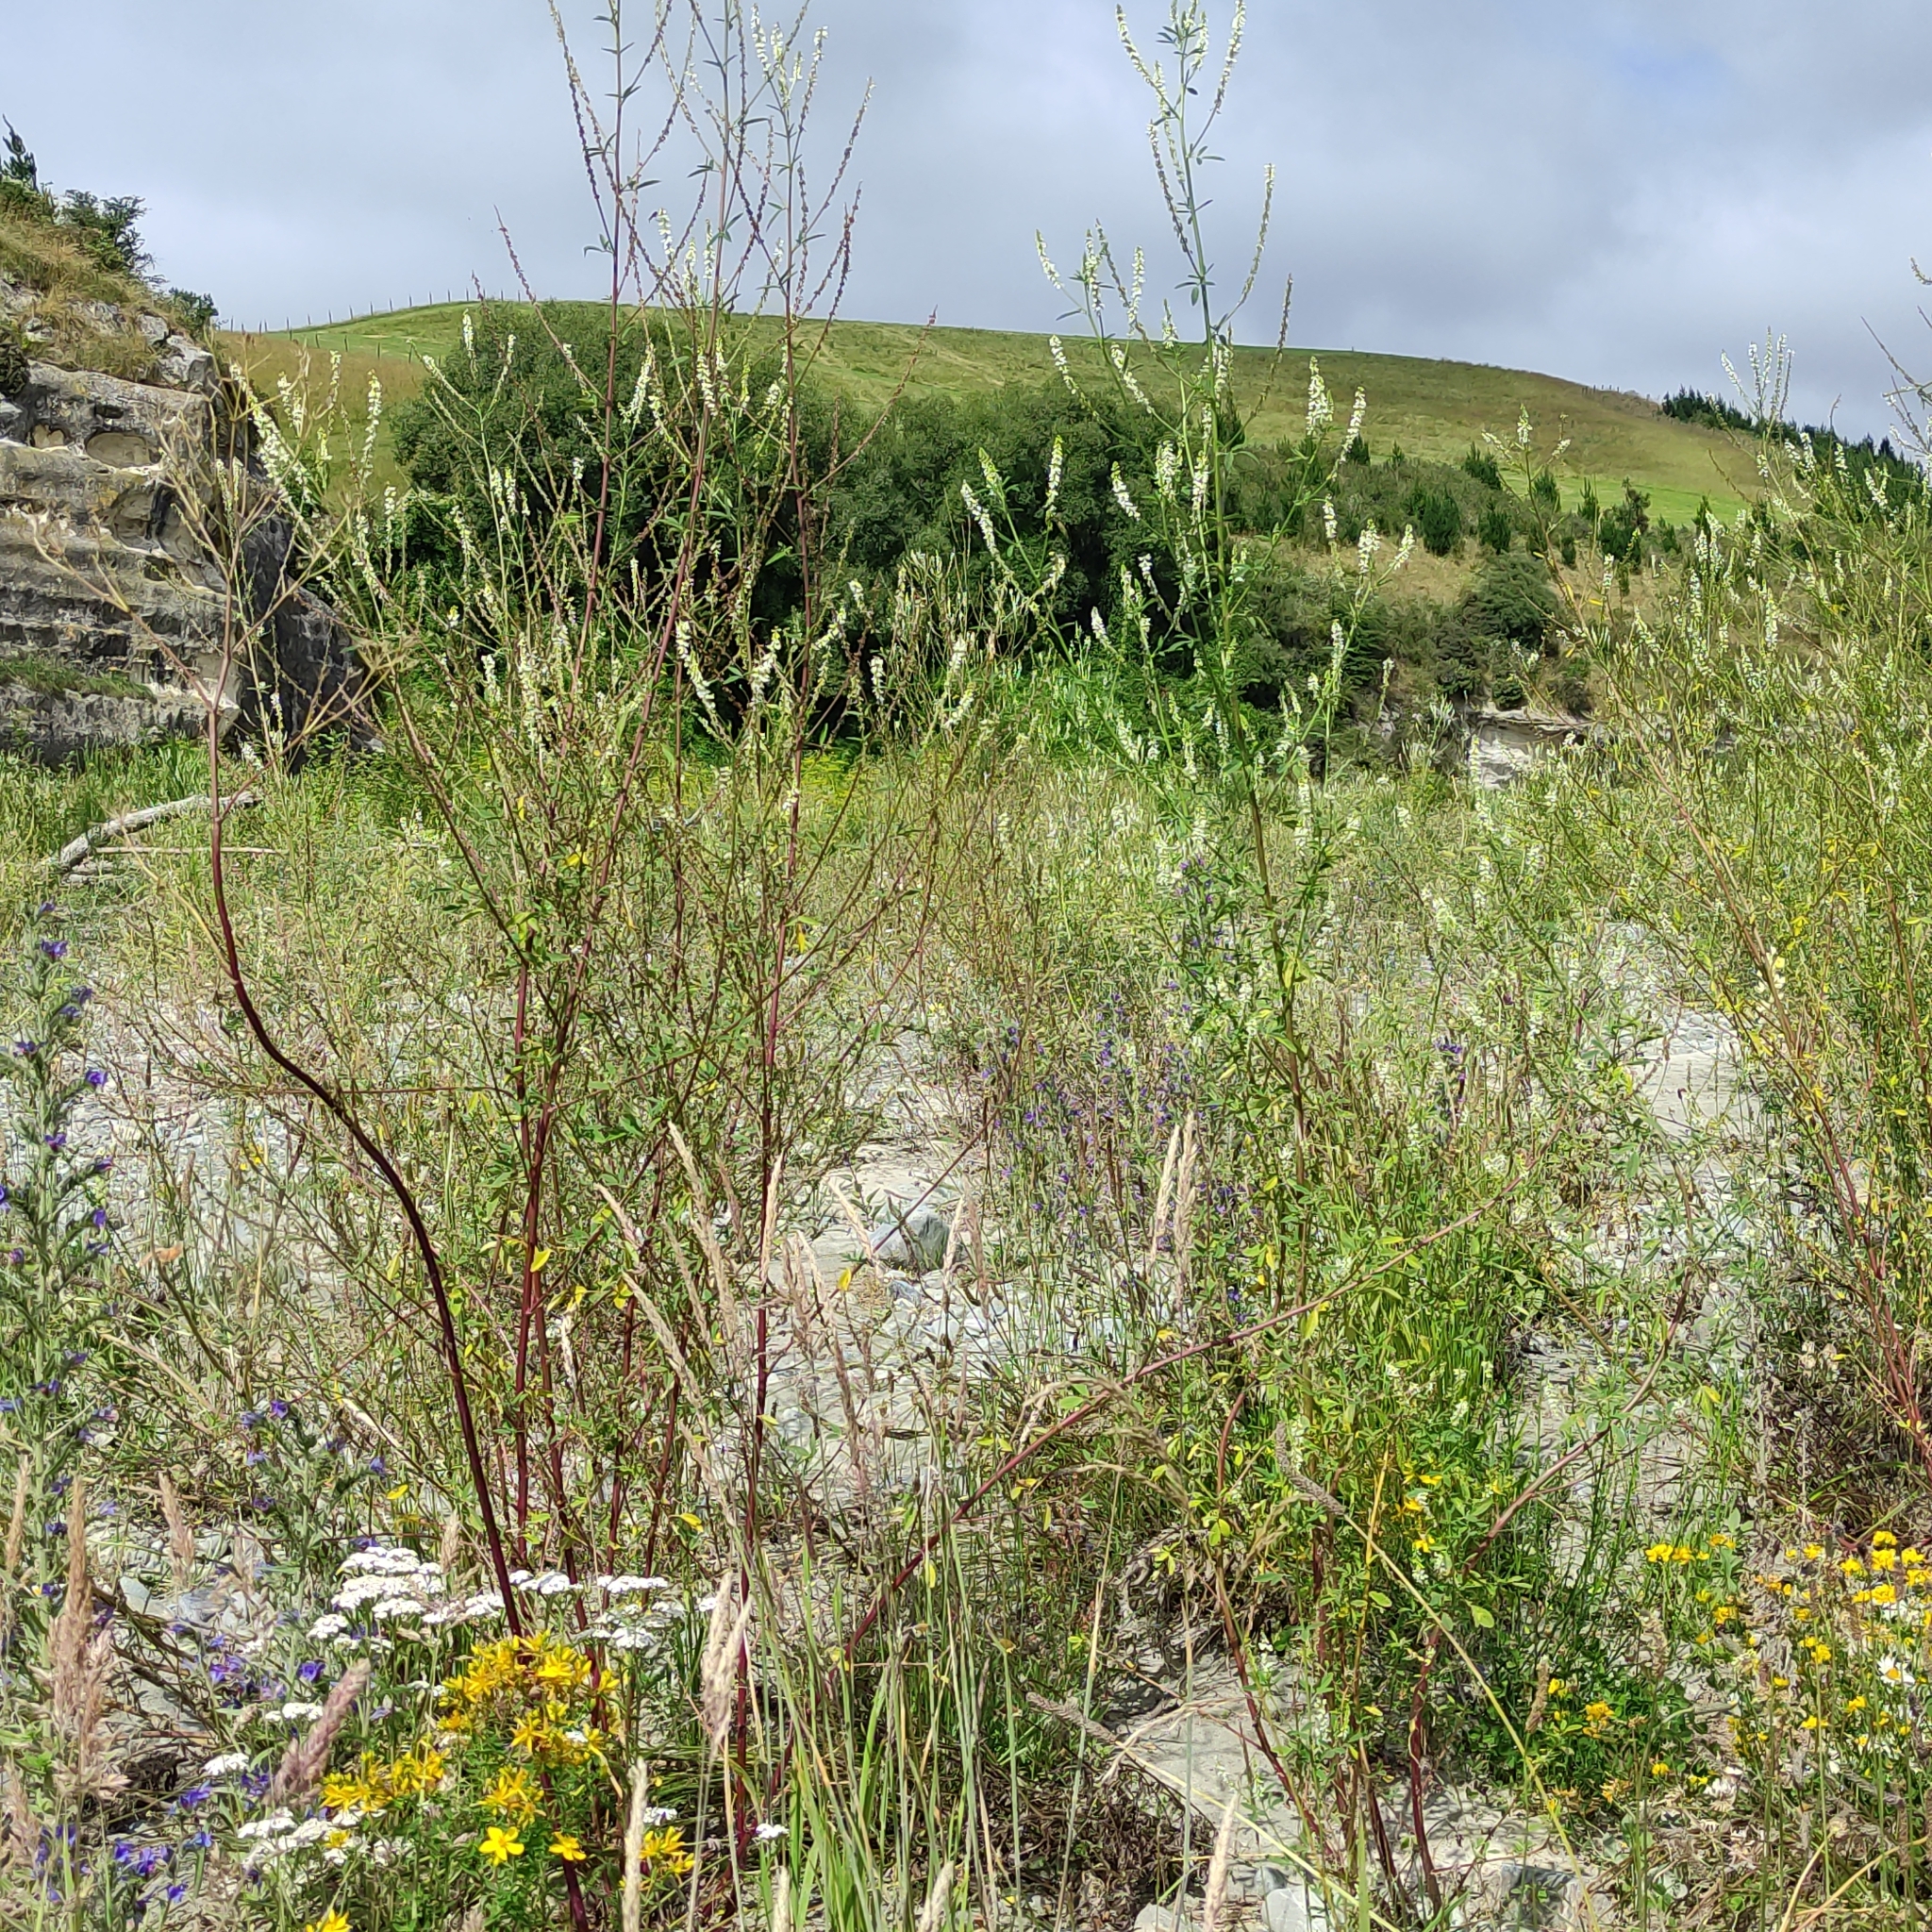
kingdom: Plantae
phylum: Tracheophyta
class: Magnoliopsida
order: Fabales
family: Fabaceae
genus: Melilotus
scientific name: Melilotus albus
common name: White melilot
